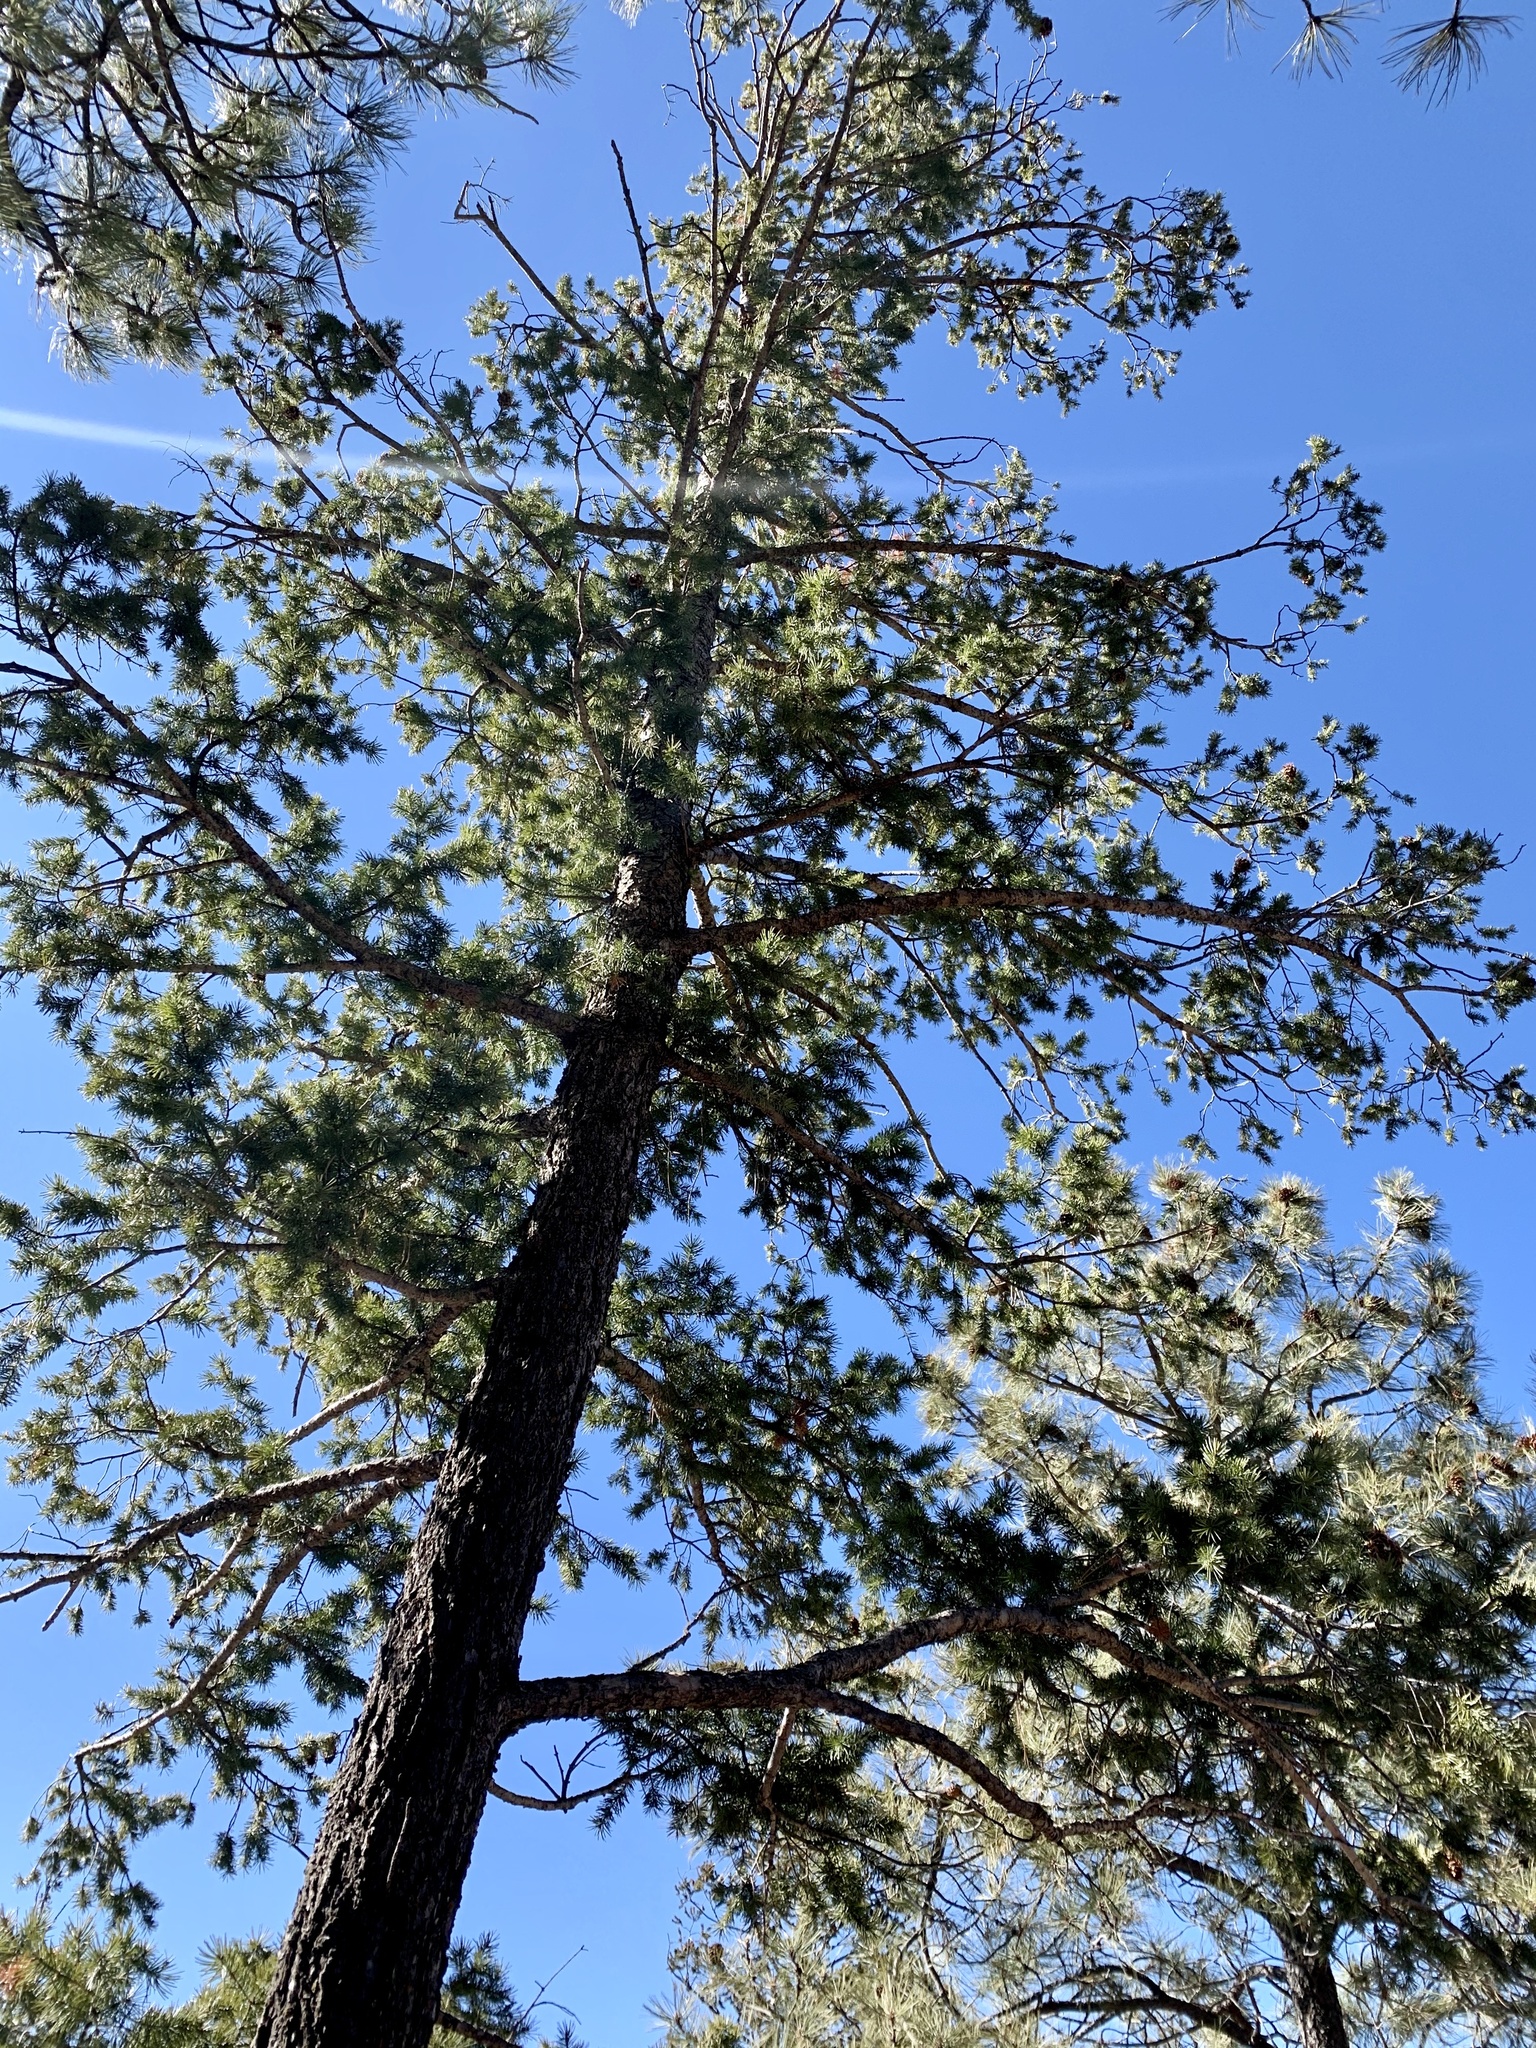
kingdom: Plantae
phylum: Tracheophyta
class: Pinopsida
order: Pinales
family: Pinaceae
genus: Pseudotsuga
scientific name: Pseudotsuga menziesii
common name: Douglas fir
